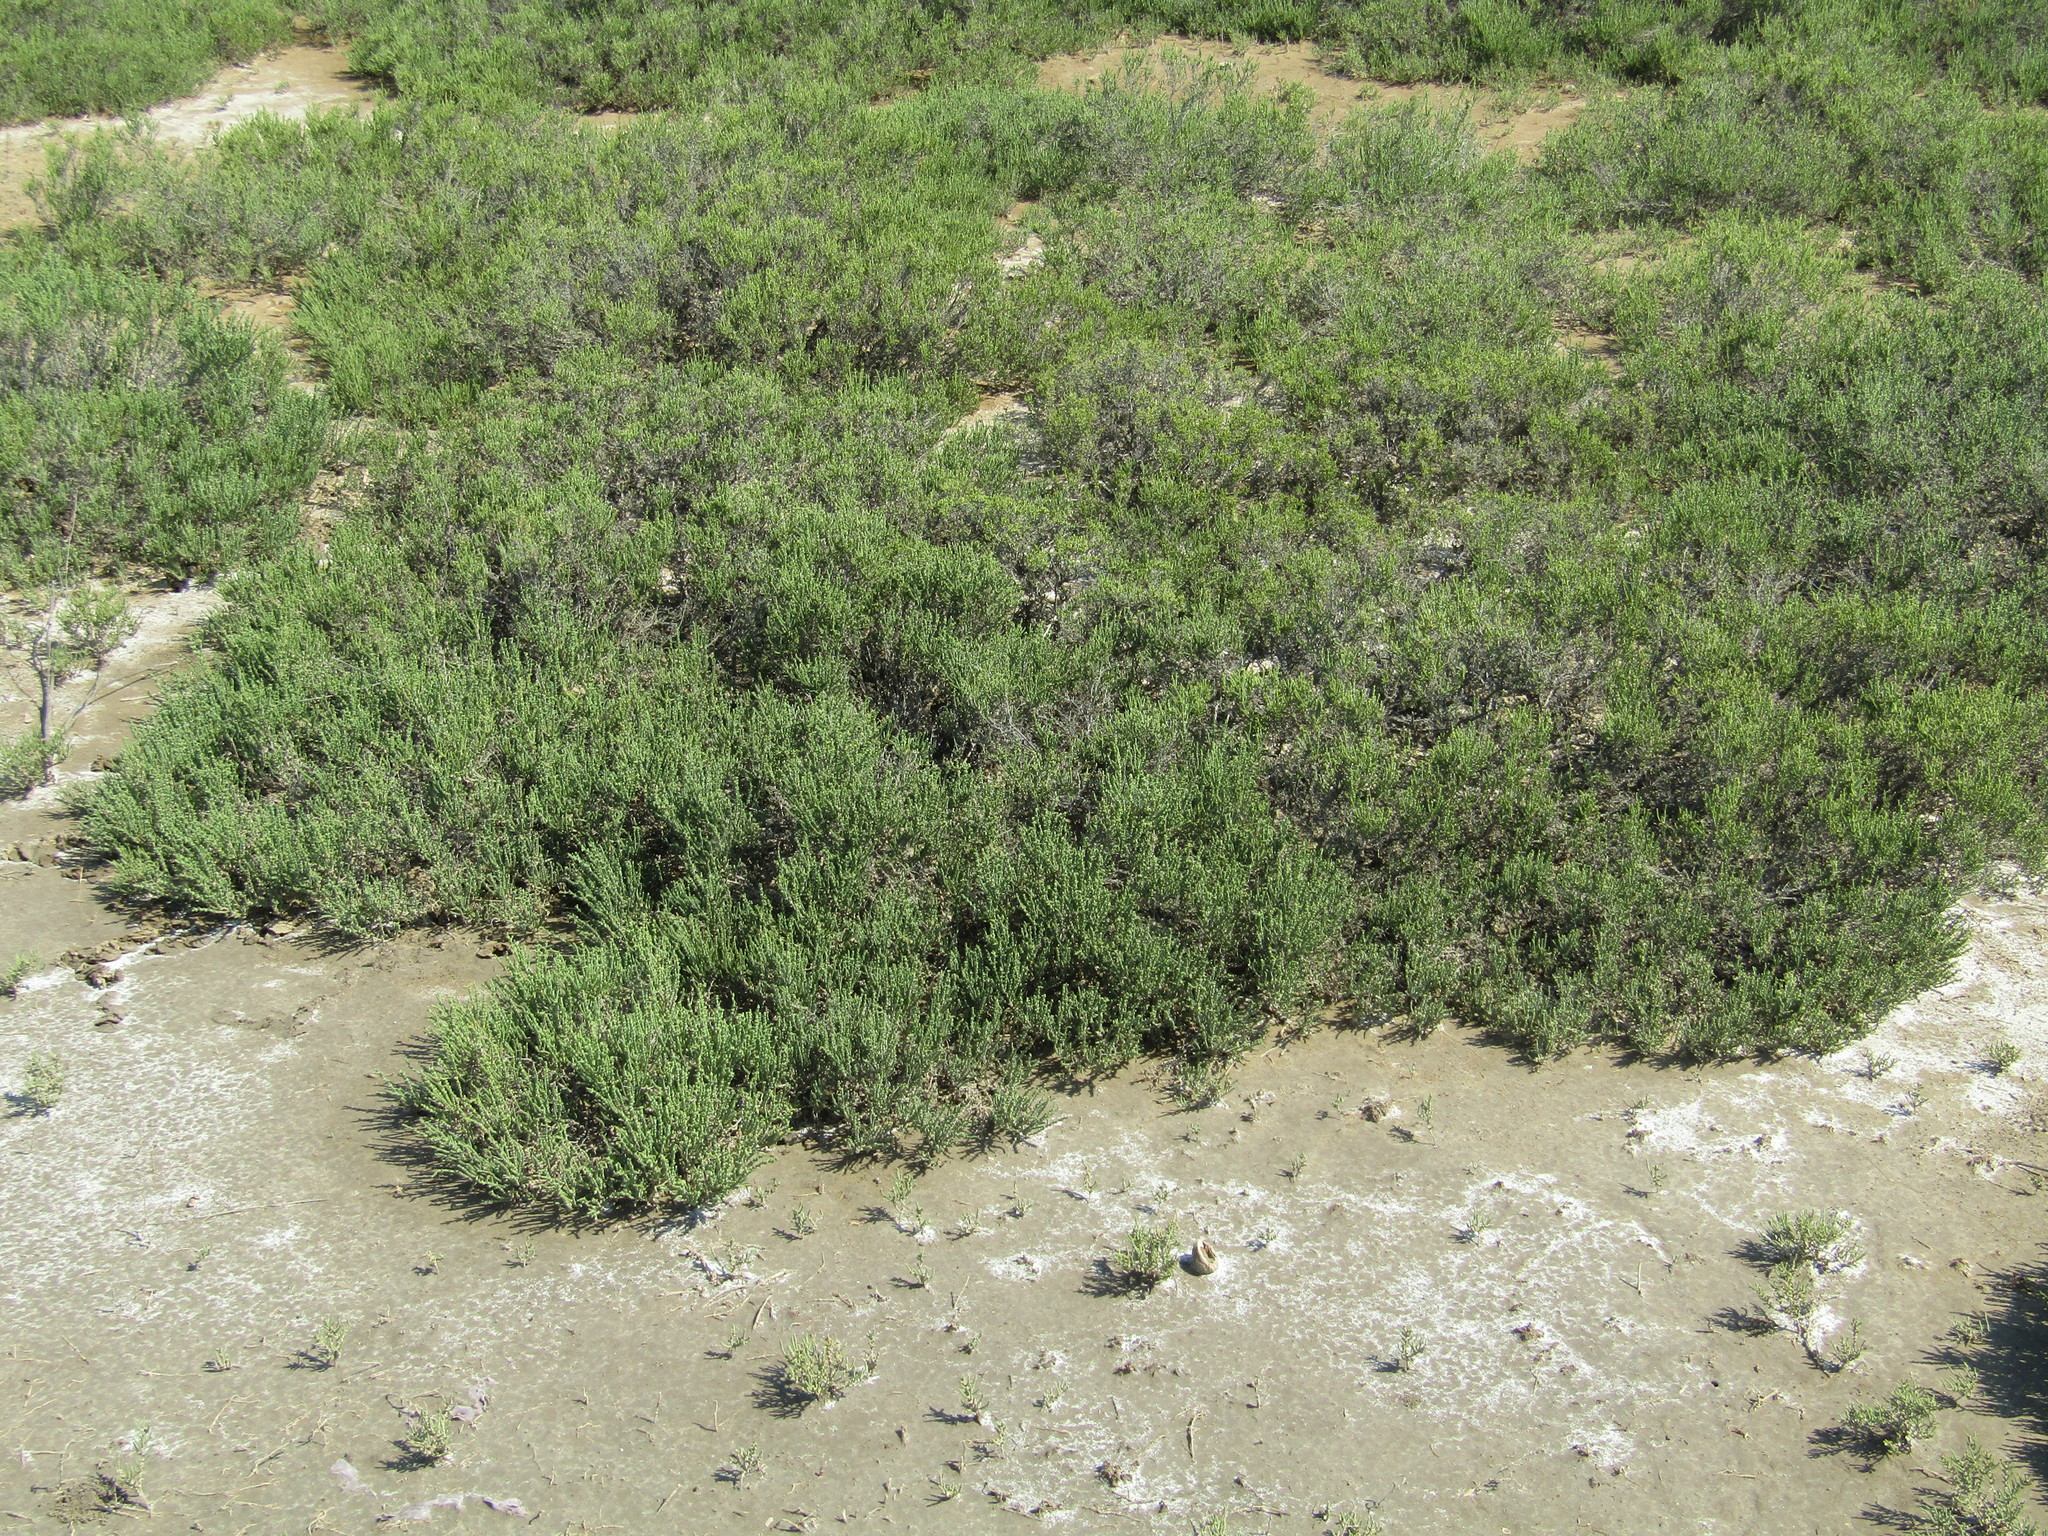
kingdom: Plantae
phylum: Tracheophyta
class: Magnoliopsida
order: Caryophyllales
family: Amaranthaceae
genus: Halocnemum
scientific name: Halocnemum strobilaceum
